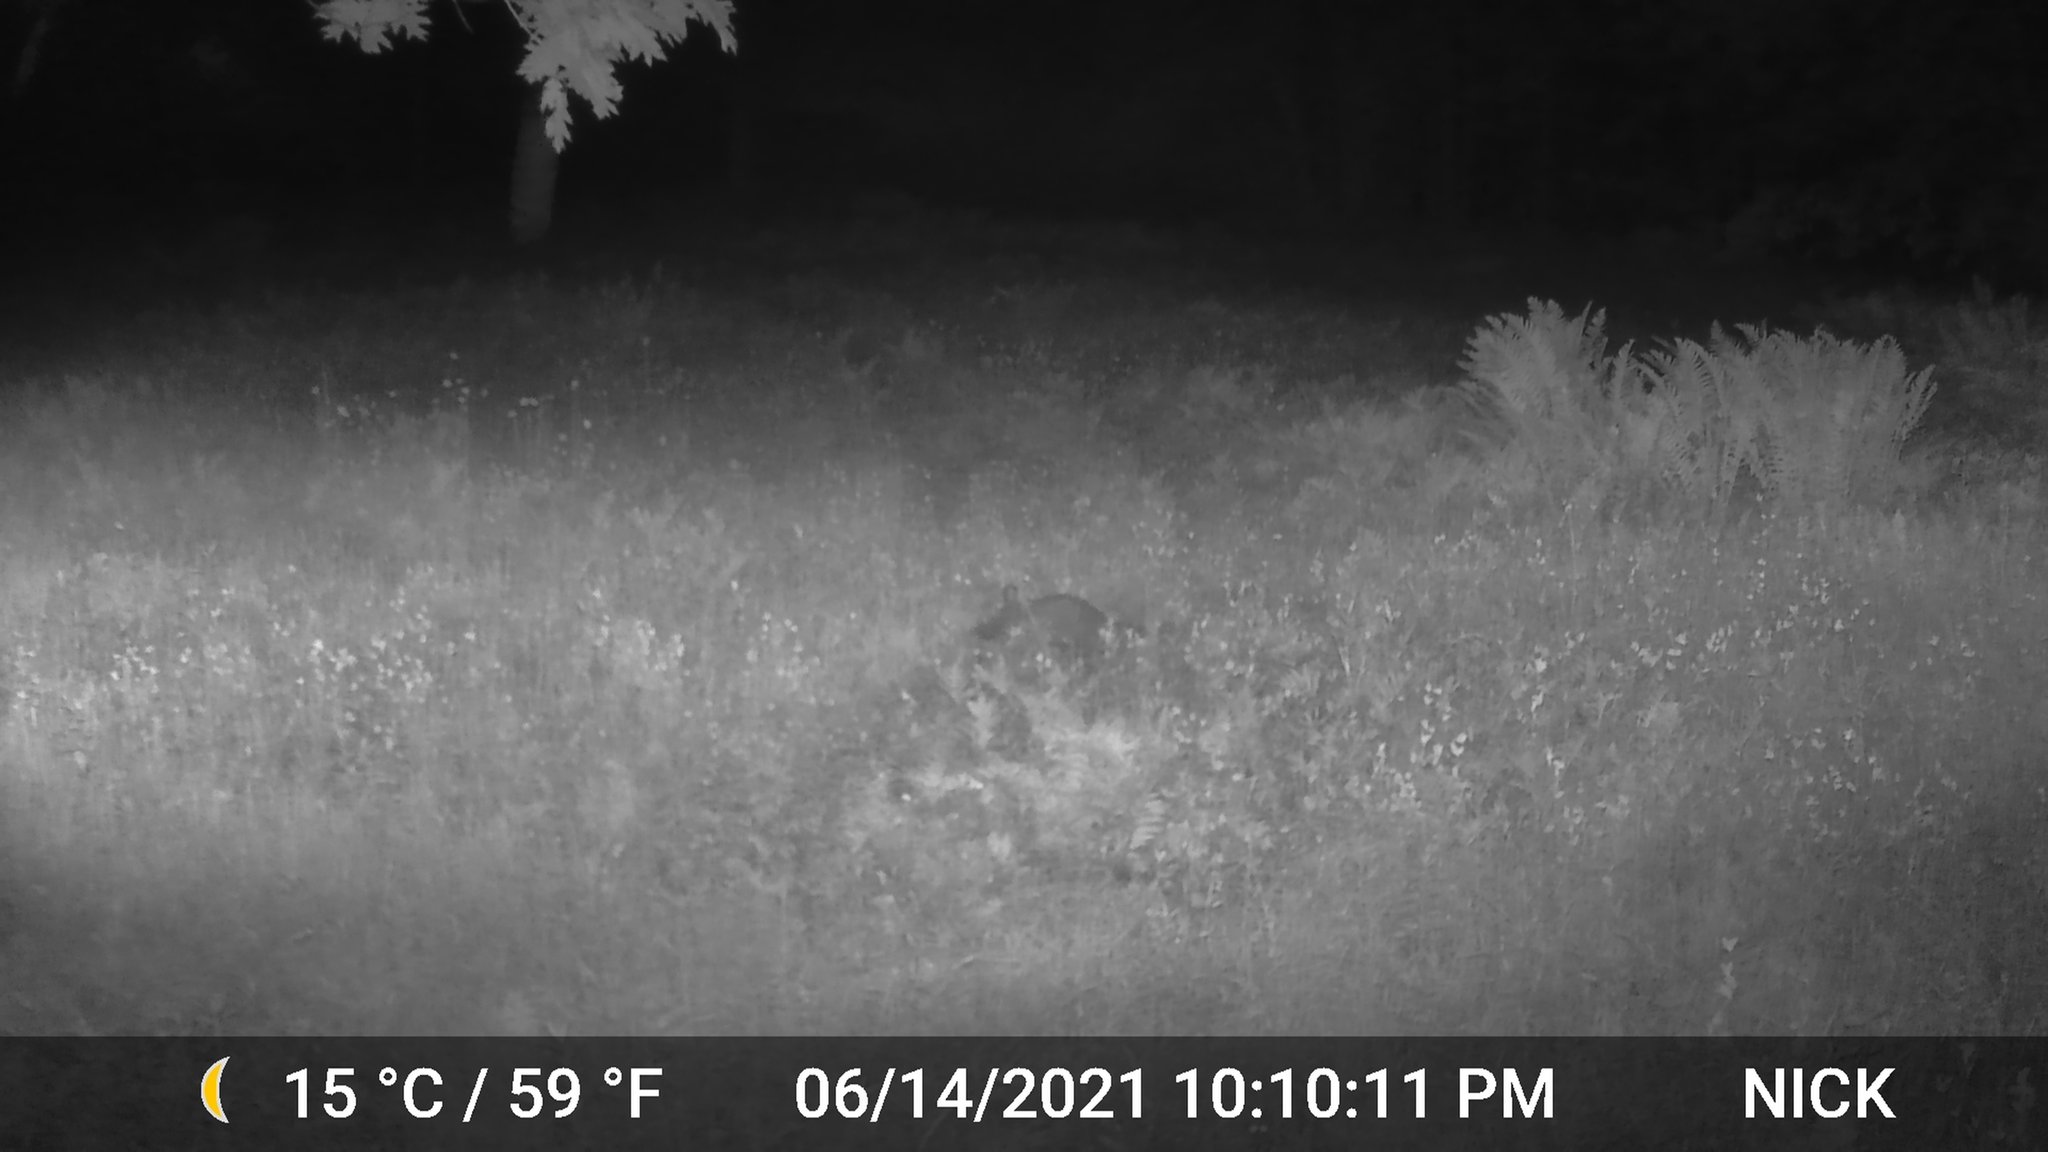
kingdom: Animalia
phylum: Chordata
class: Mammalia
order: Carnivora
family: Procyonidae
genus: Procyon
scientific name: Procyon lotor
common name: Raccoon
